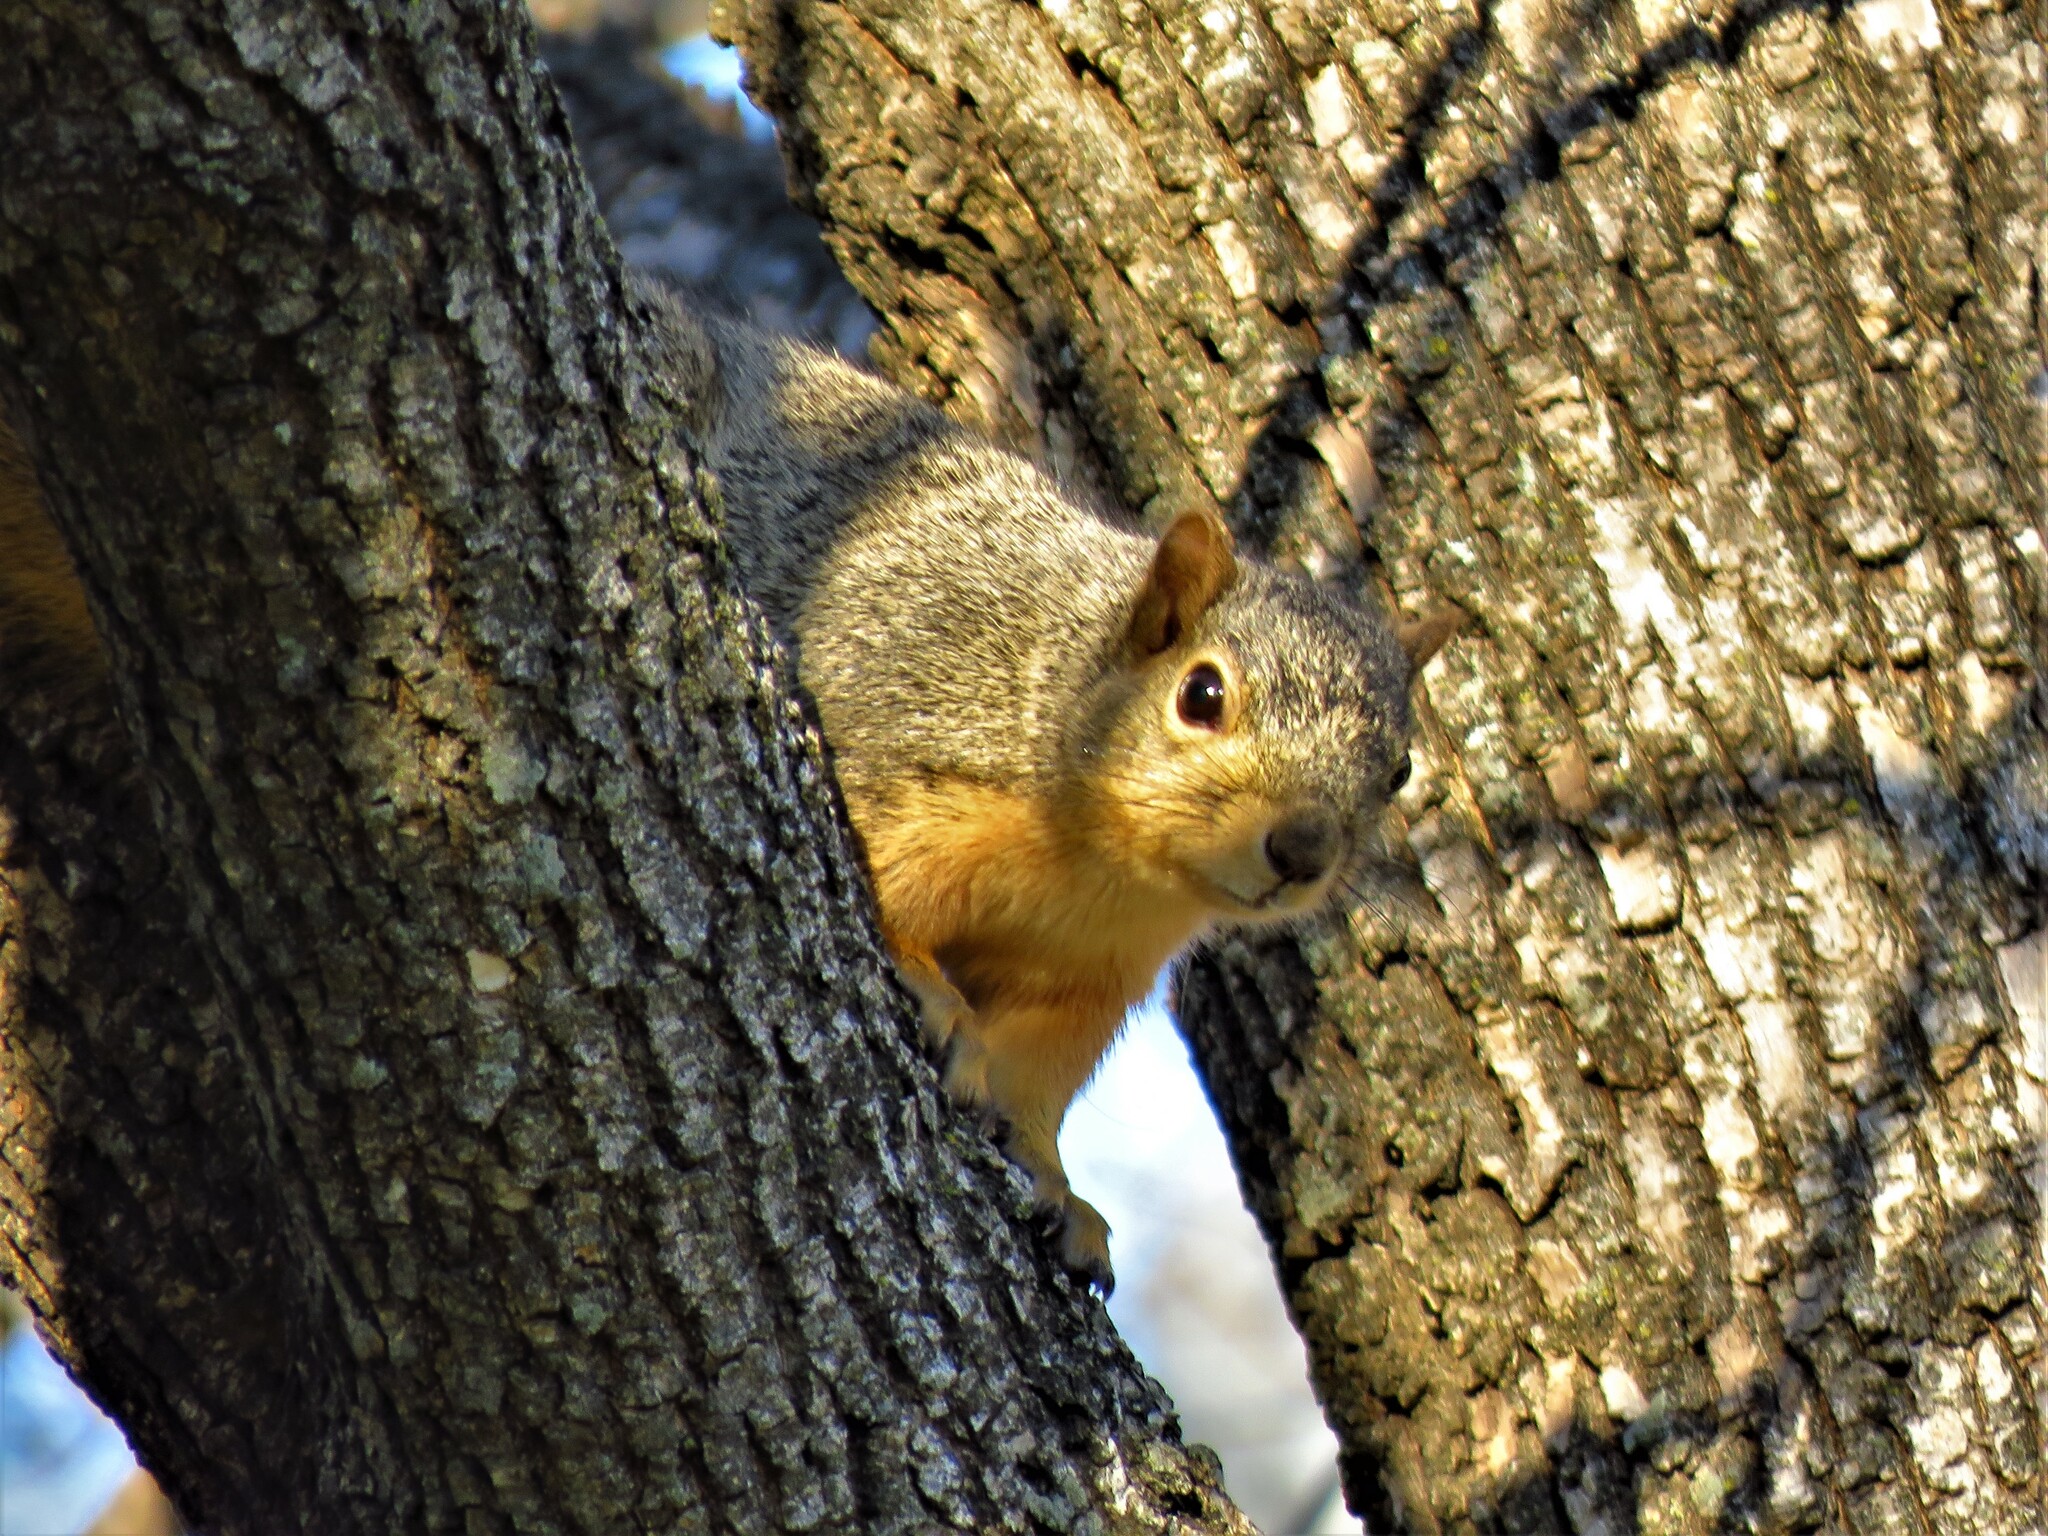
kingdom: Animalia
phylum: Chordata
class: Mammalia
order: Rodentia
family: Sciuridae
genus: Sciurus
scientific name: Sciurus niger
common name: Fox squirrel
